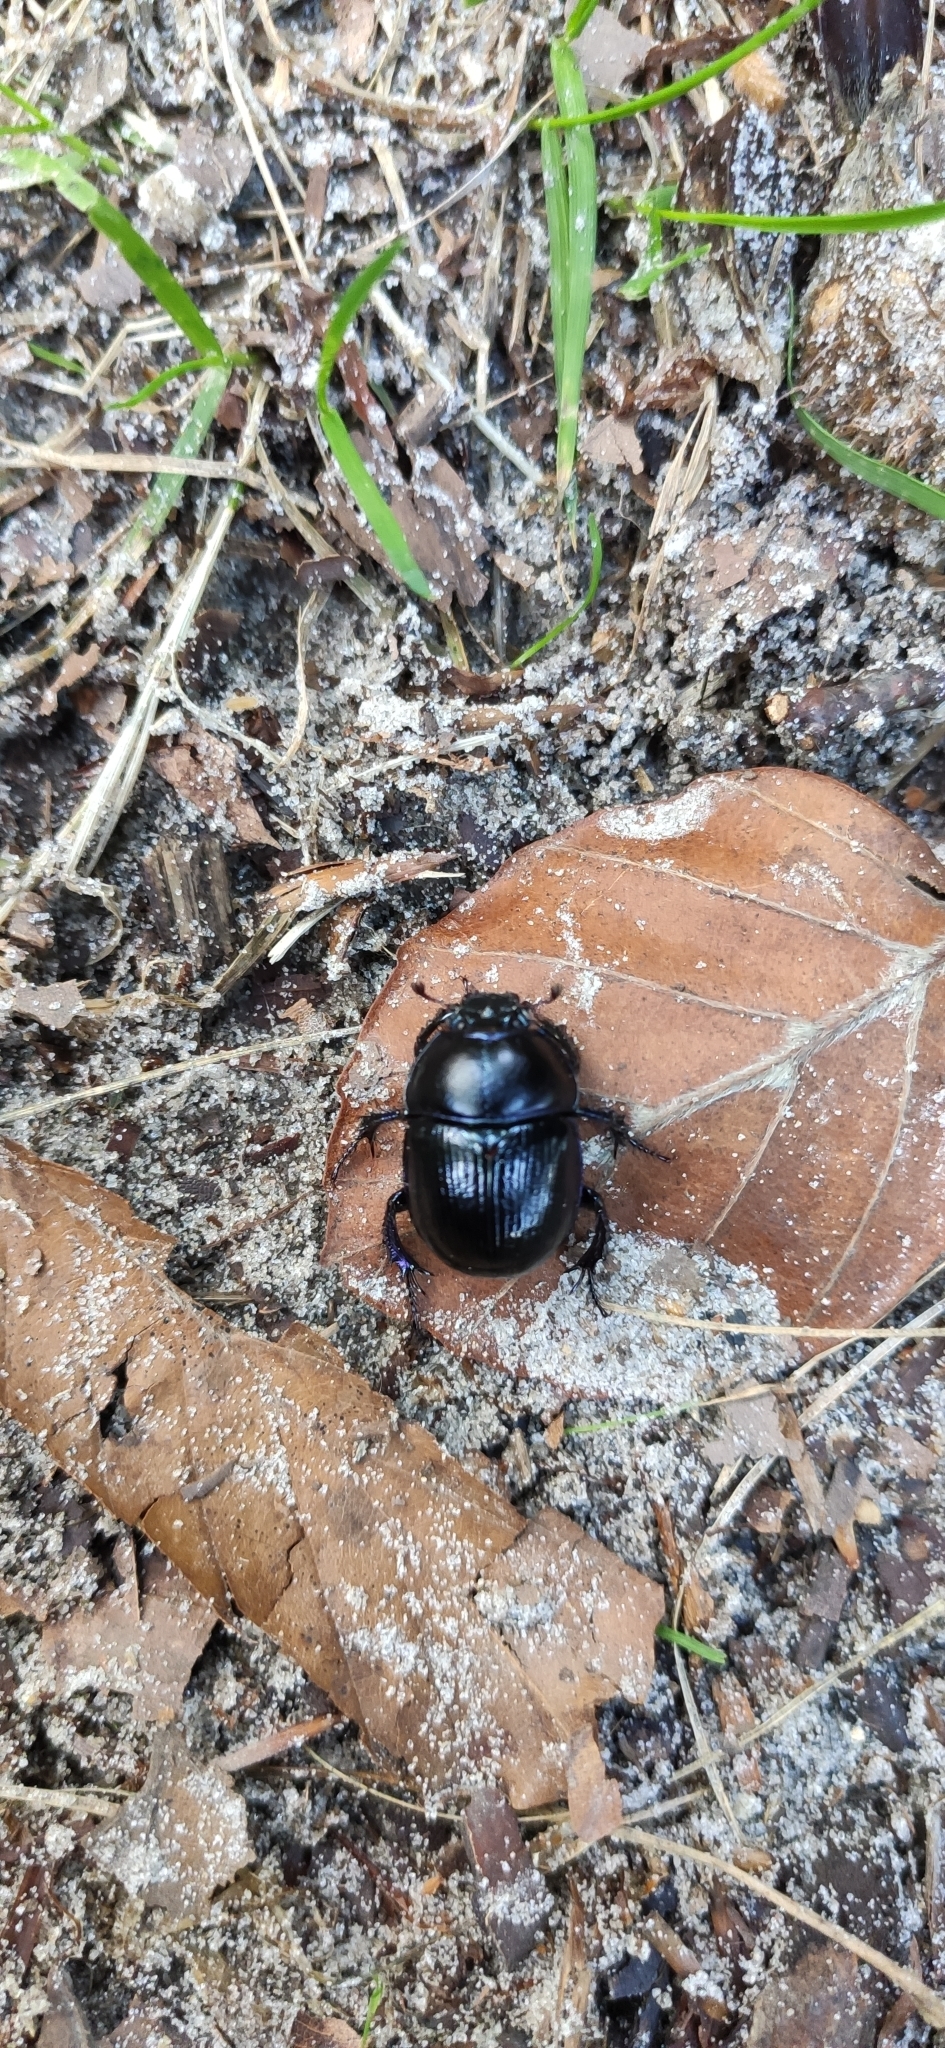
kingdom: Animalia
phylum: Arthropoda
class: Insecta
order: Coleoptera
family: Geotrupidae
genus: Anoplotrupes
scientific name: Anoplotrupes stercorosus
